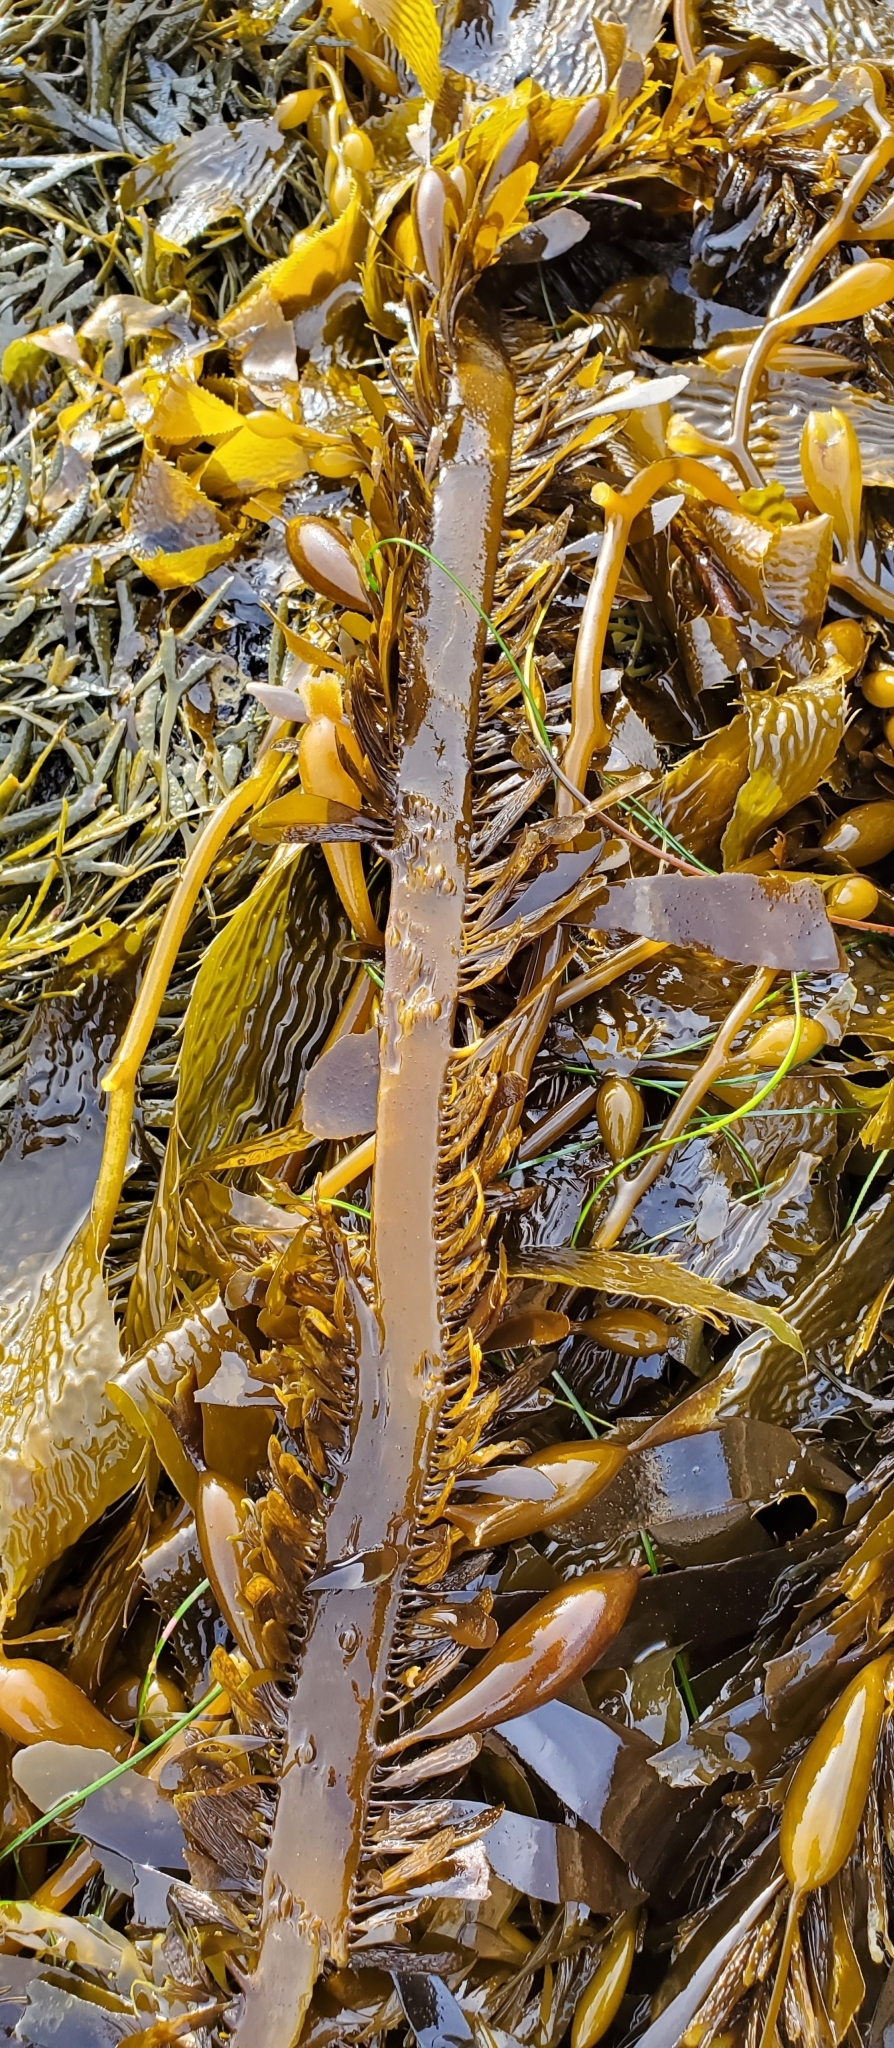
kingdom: Chromista
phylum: Ochrophyta
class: Phaeophyceae
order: Laminariales
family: Lessoniaceae
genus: Egregia
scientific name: Egregia menziesii
